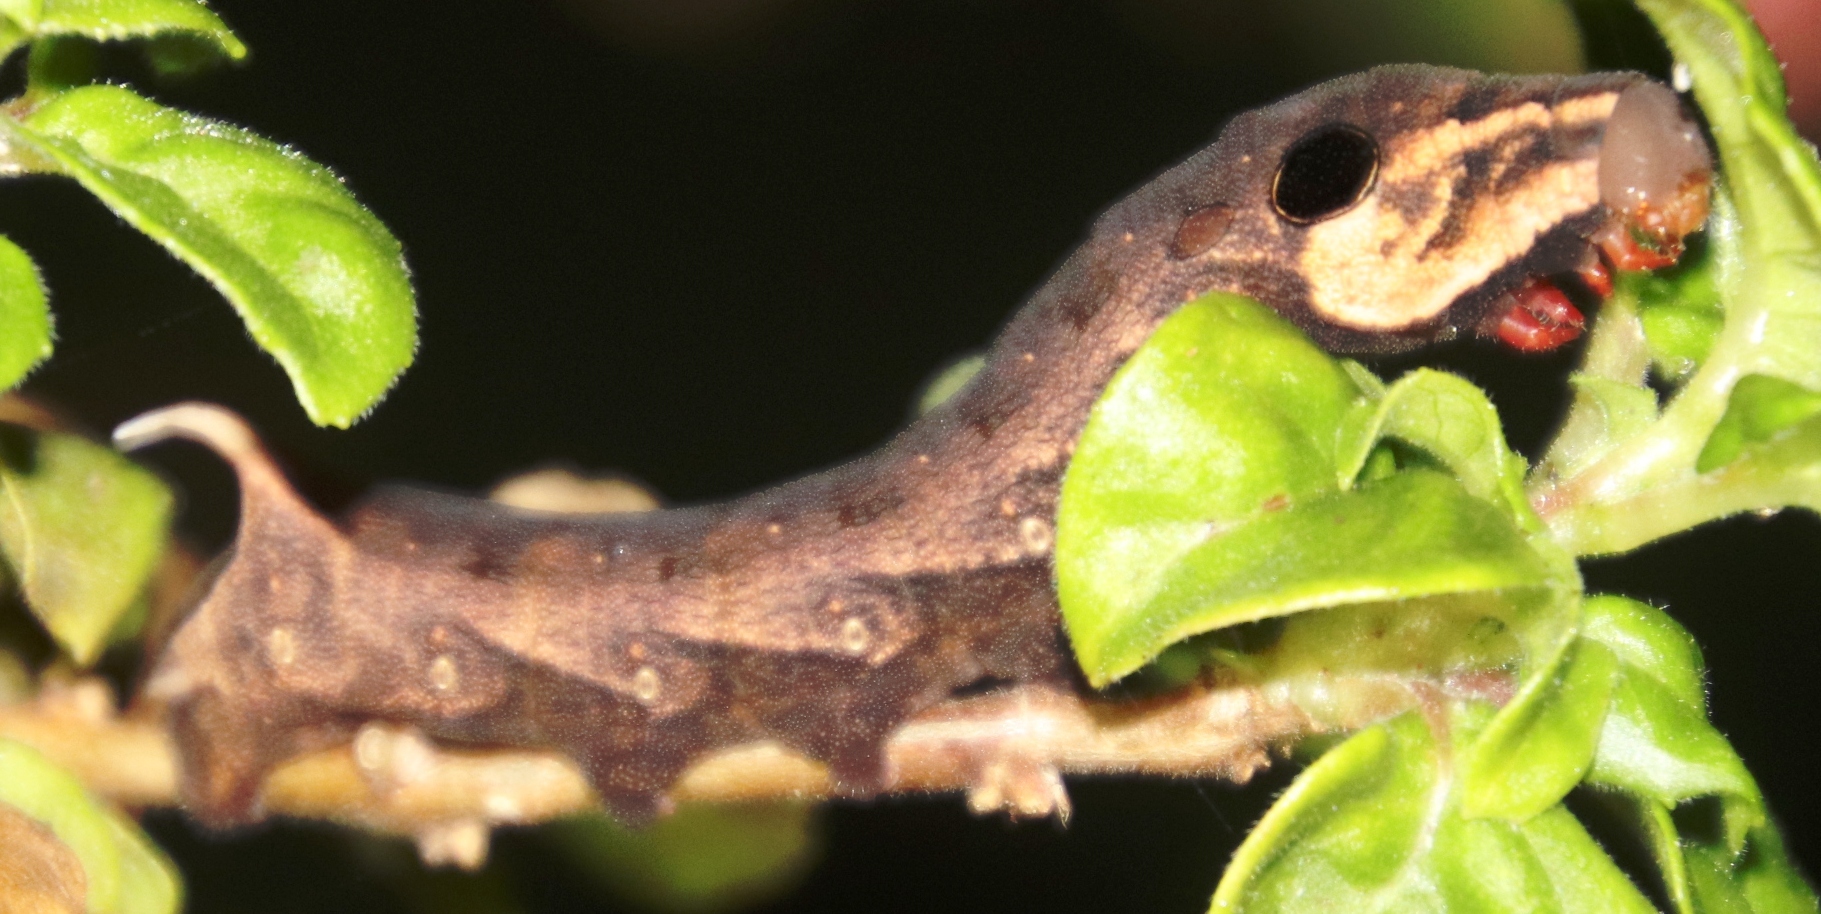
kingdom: Animalia
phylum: Arthropoda
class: Insecta
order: Lepidoptera
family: Sphingidae
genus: Hippotion
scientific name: Hippotion eson
